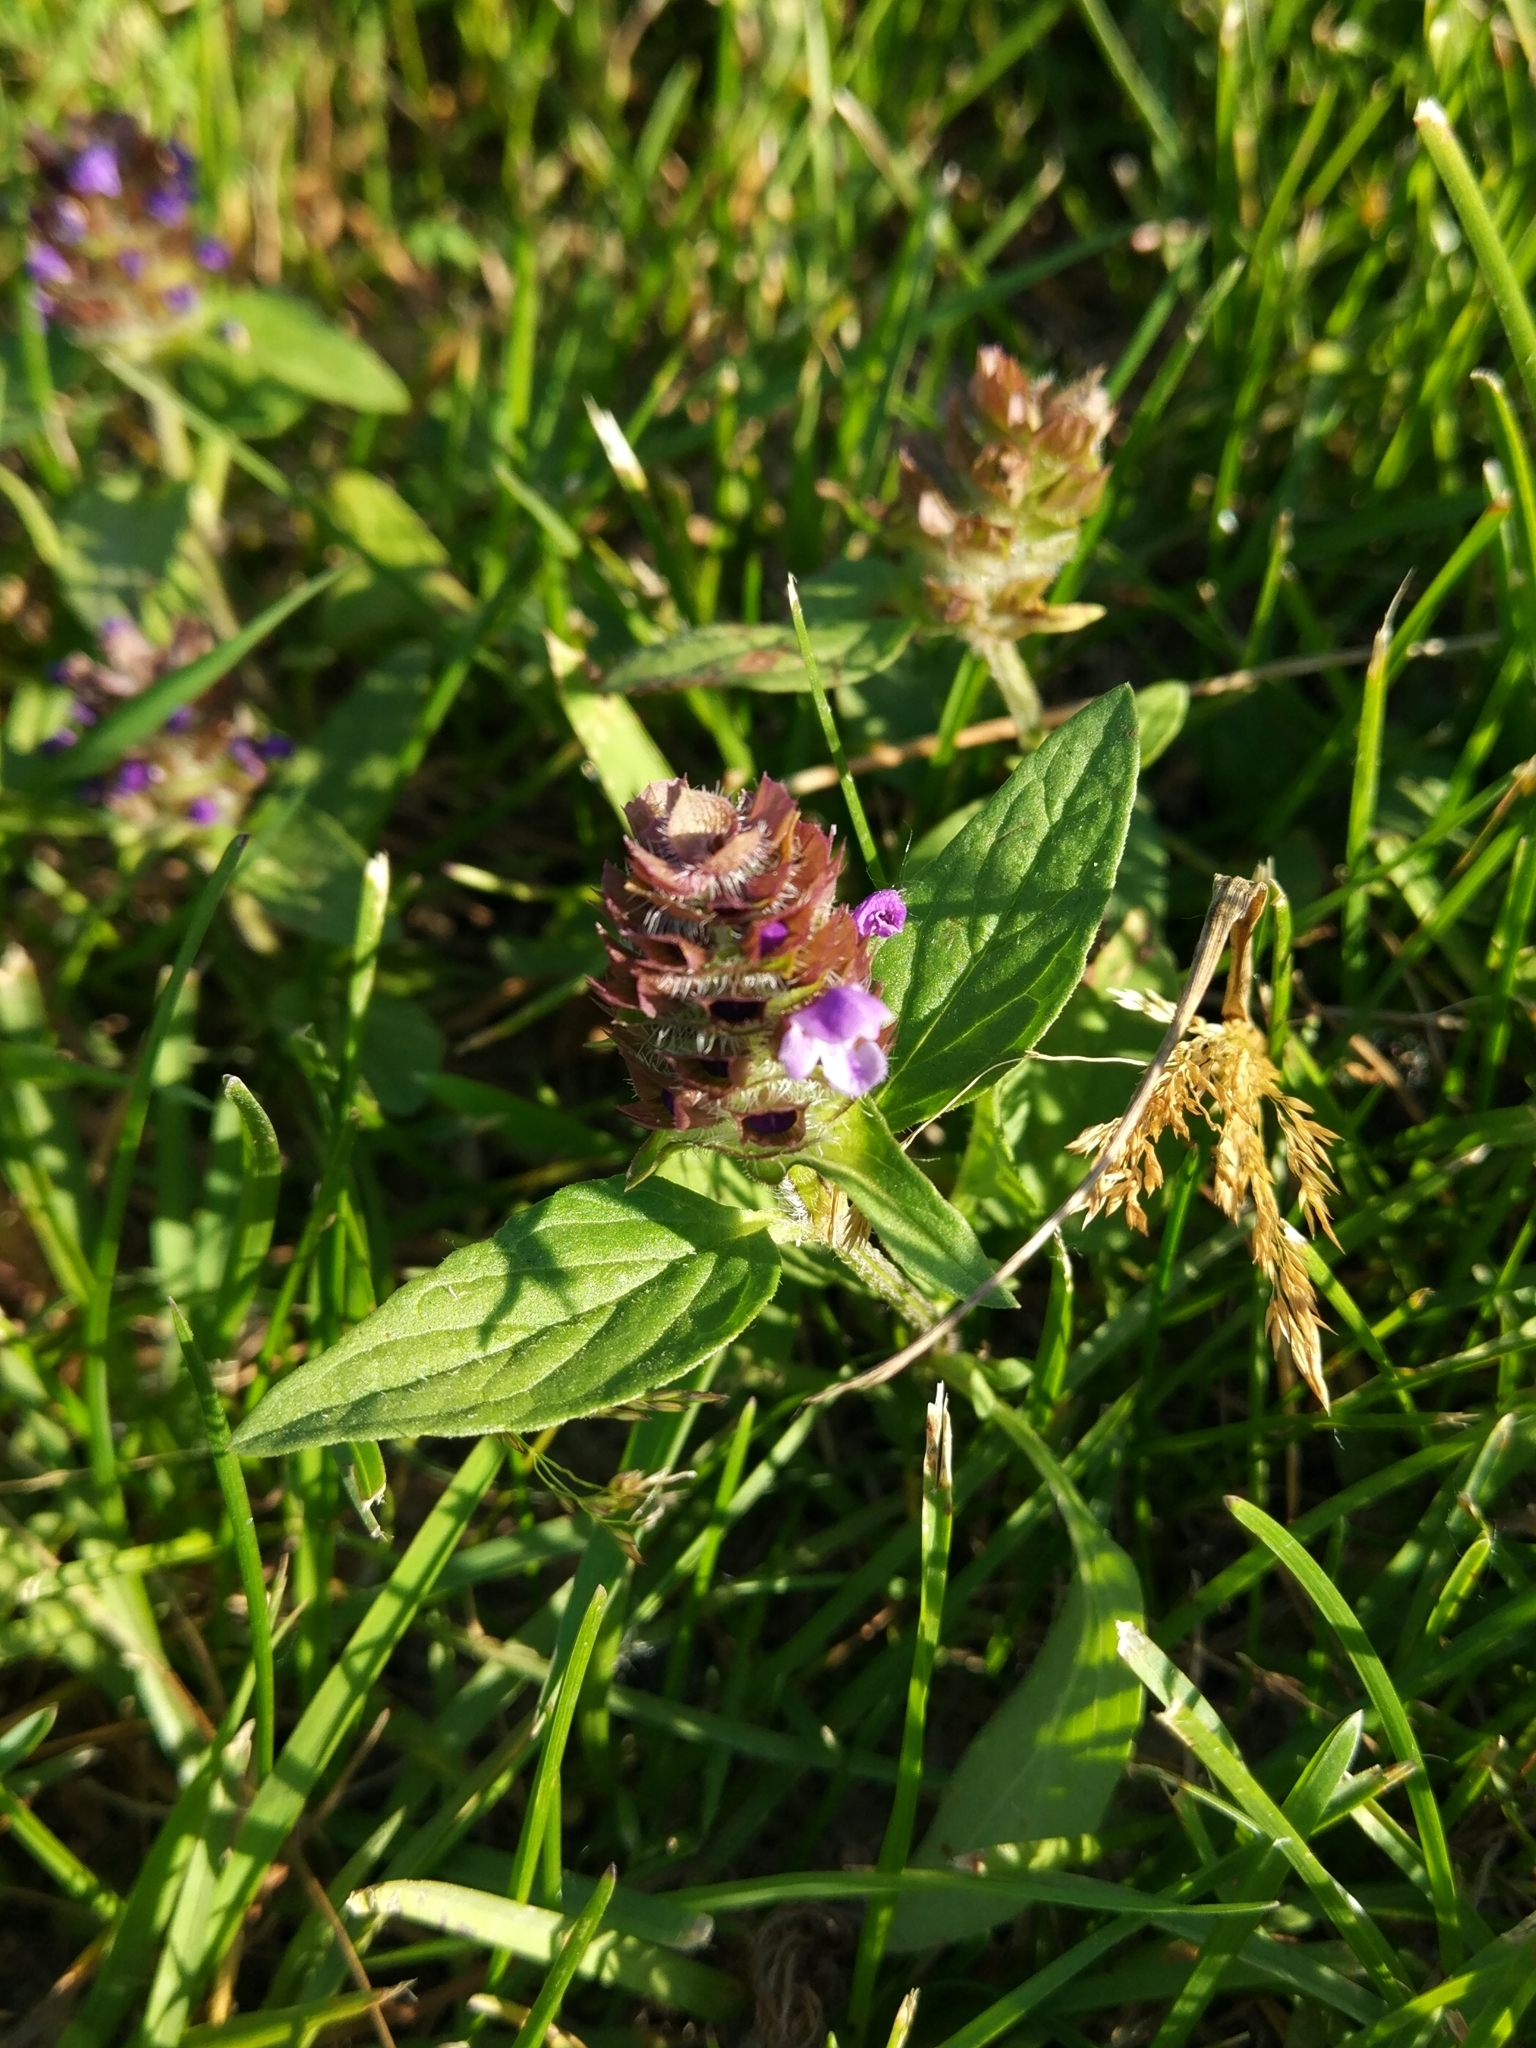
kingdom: Plantae
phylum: Tracheophyta
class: Magnoliopsida
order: Lamiales
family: Lamiaceae
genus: Prunella
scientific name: Prunella vulgaris
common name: Heal-all
